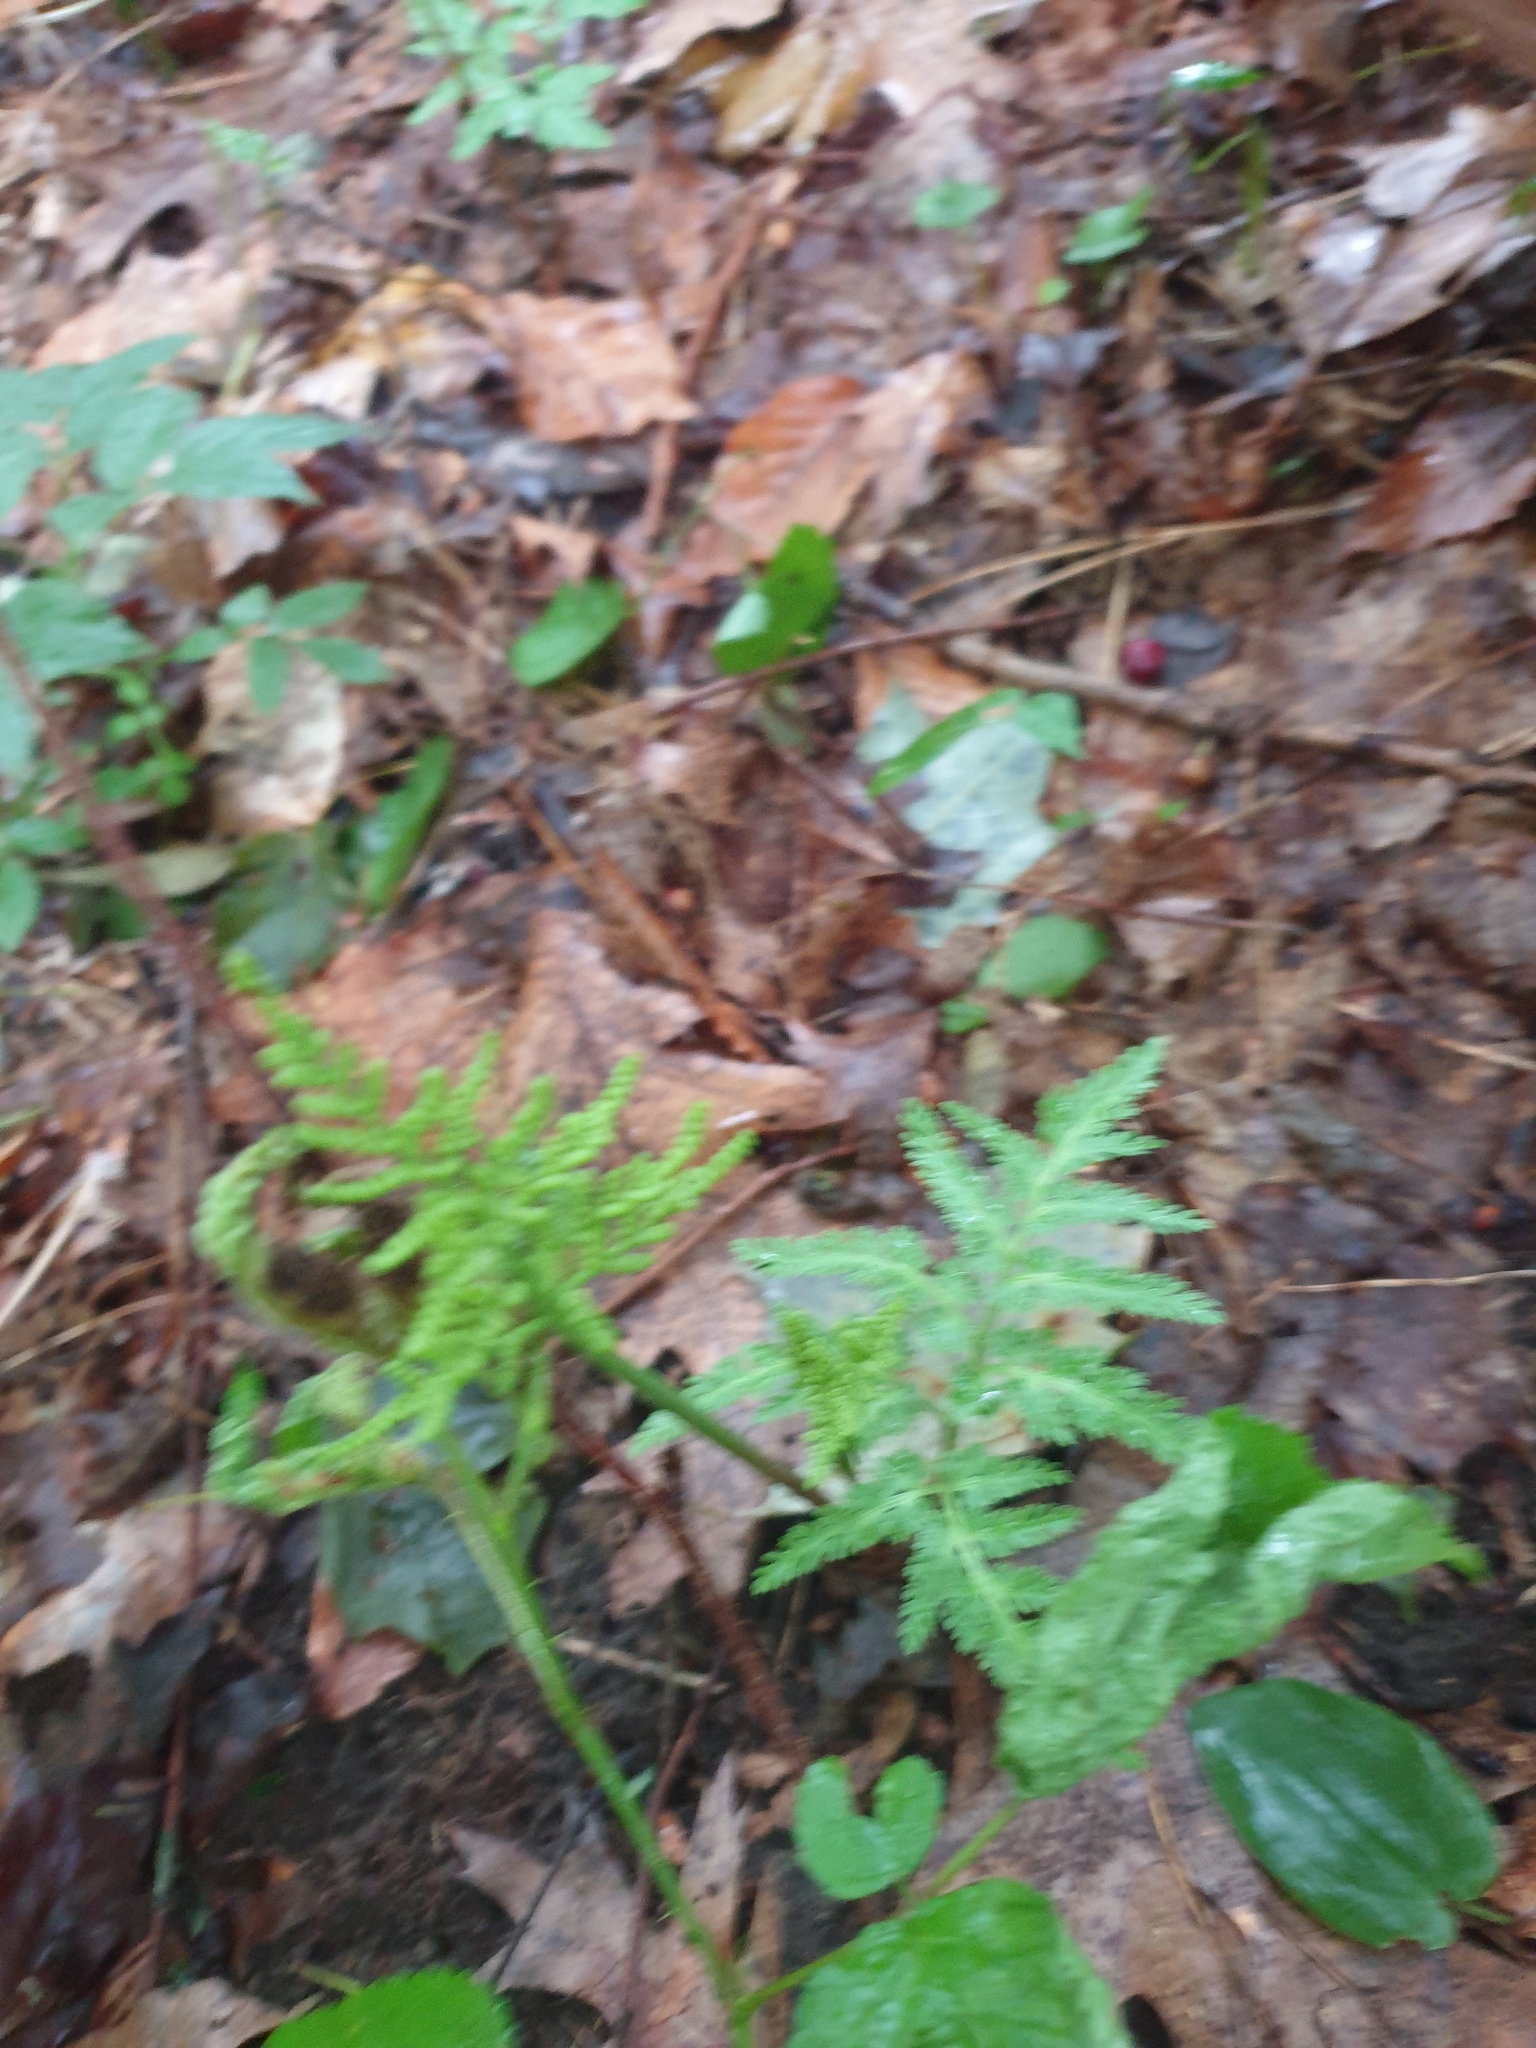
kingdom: Plantae
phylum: Tracheophyta
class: Polypodiopsida
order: Ophioglossales
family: Ophioglossaceae
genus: Sceptridium
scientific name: Sceptridium dissectum
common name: Cut-leaved grapefern
